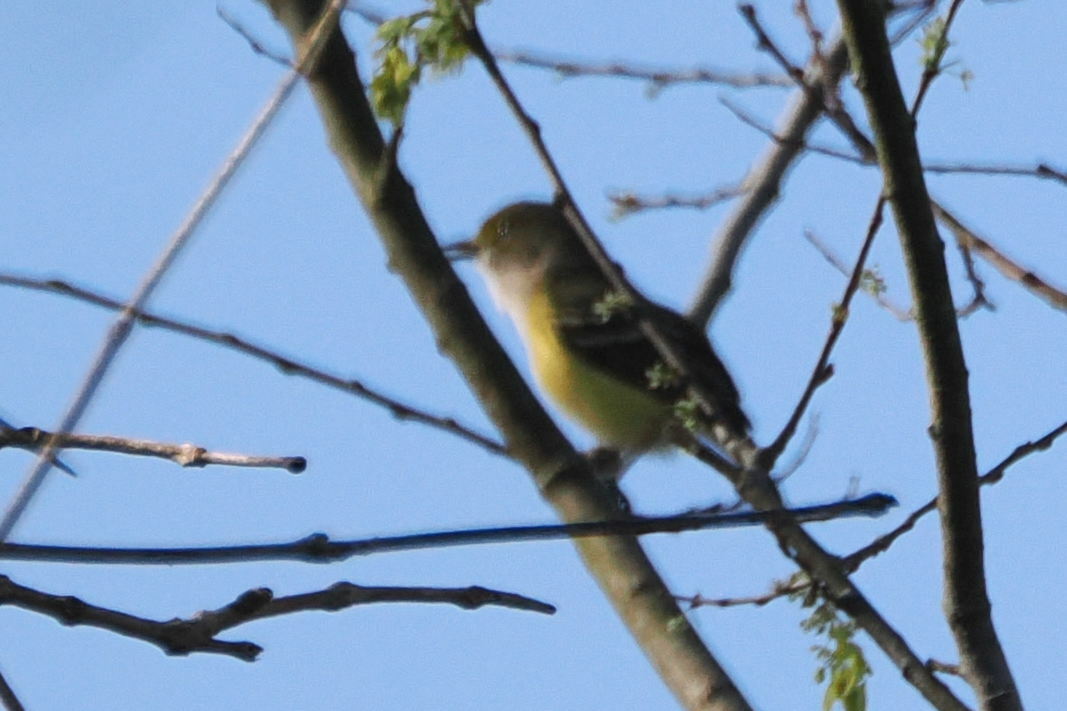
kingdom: Animalia
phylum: Chordata
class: Aves
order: Passeriformes
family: Vireonidae
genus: Vireo
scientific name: Vireo griseus
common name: White-eyed vireo
